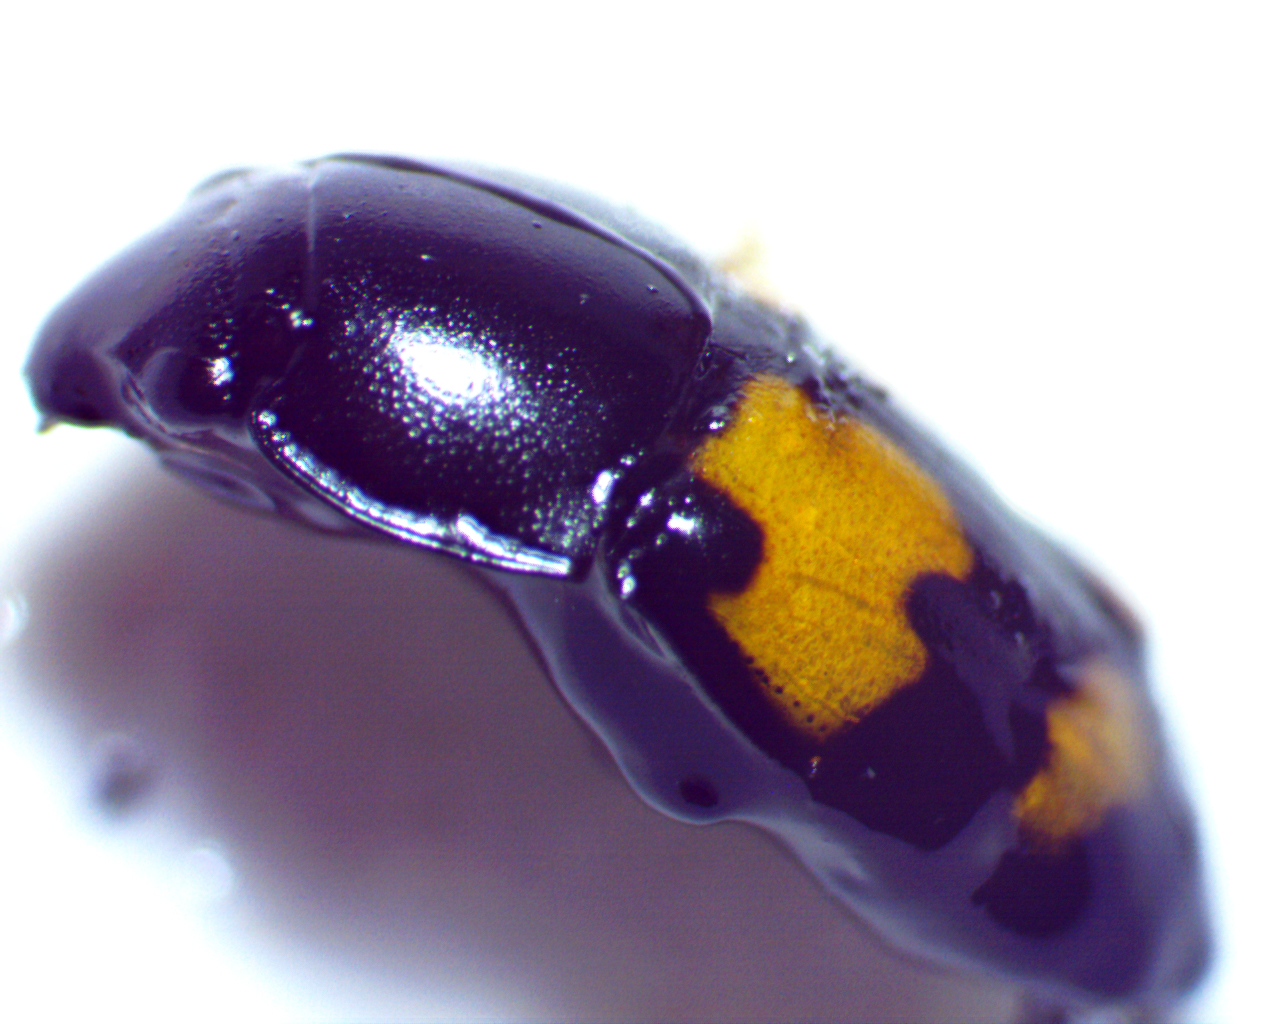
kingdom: Animalia
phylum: Arthropoda
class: Insecta
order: Coleoptera
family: Nitidulidae
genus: Glischrochilus
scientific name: Glischrochilus fasciatus
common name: Picnic beetle
